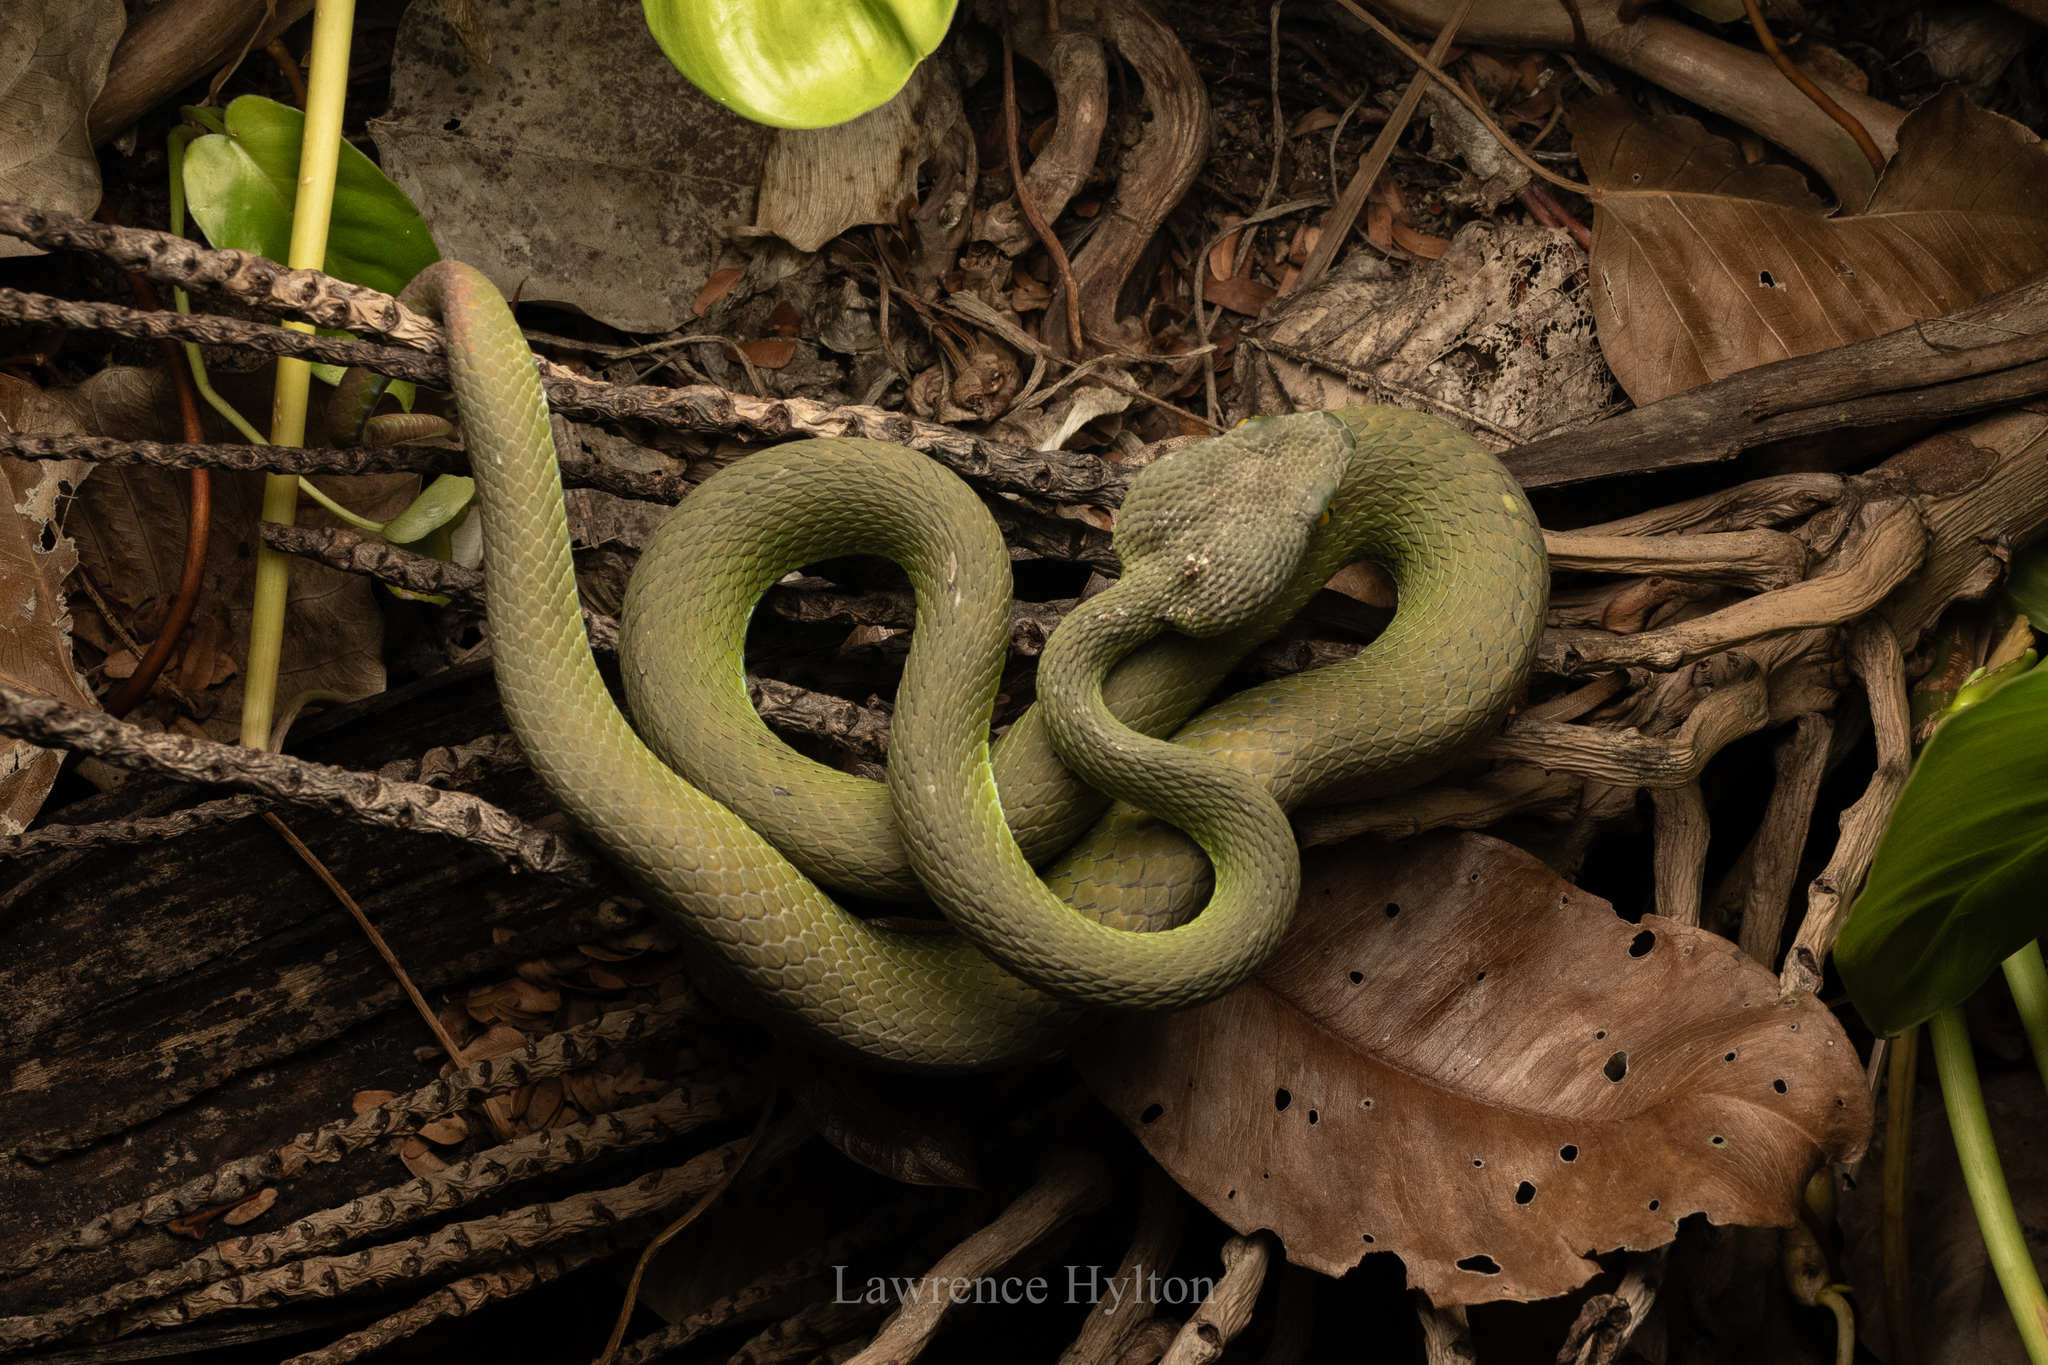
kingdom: Animalia
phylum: Chordata
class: Squamata
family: Viperidae
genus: Trimeresurus
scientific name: Trimeresurus macrops
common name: Kramer's pit viper
